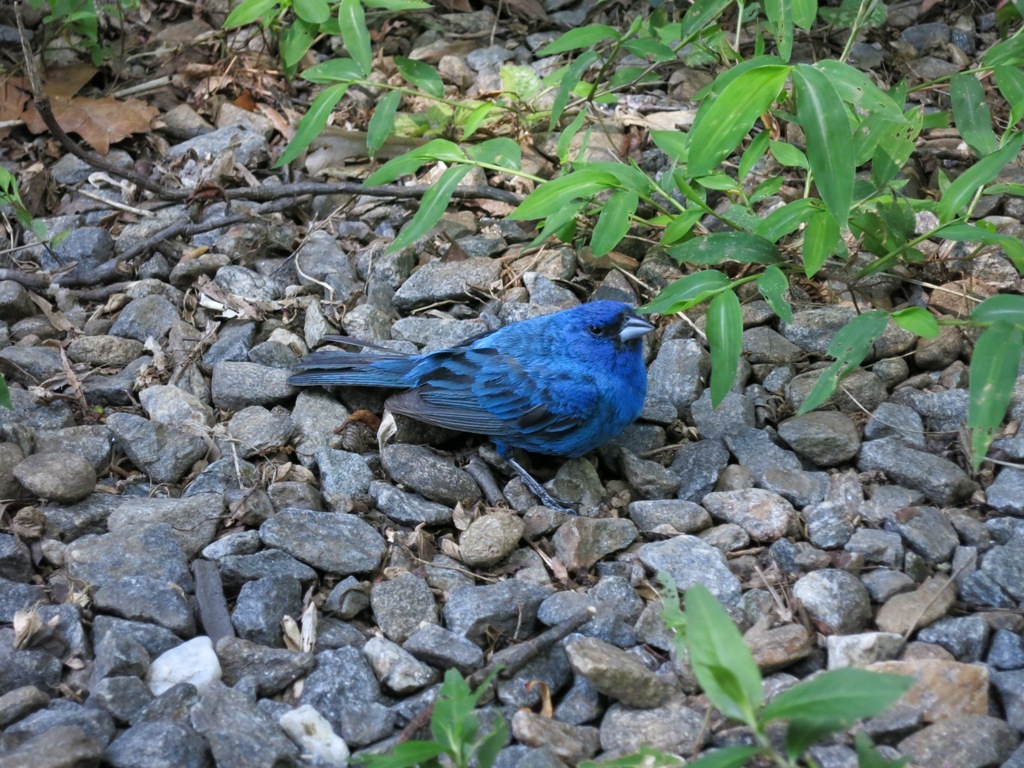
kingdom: Animalia
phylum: Chordata
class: Aves
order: Passeriformes
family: Cardinalidae
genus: Passerina
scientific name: Passerina cyanea
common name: Indigo bunting
